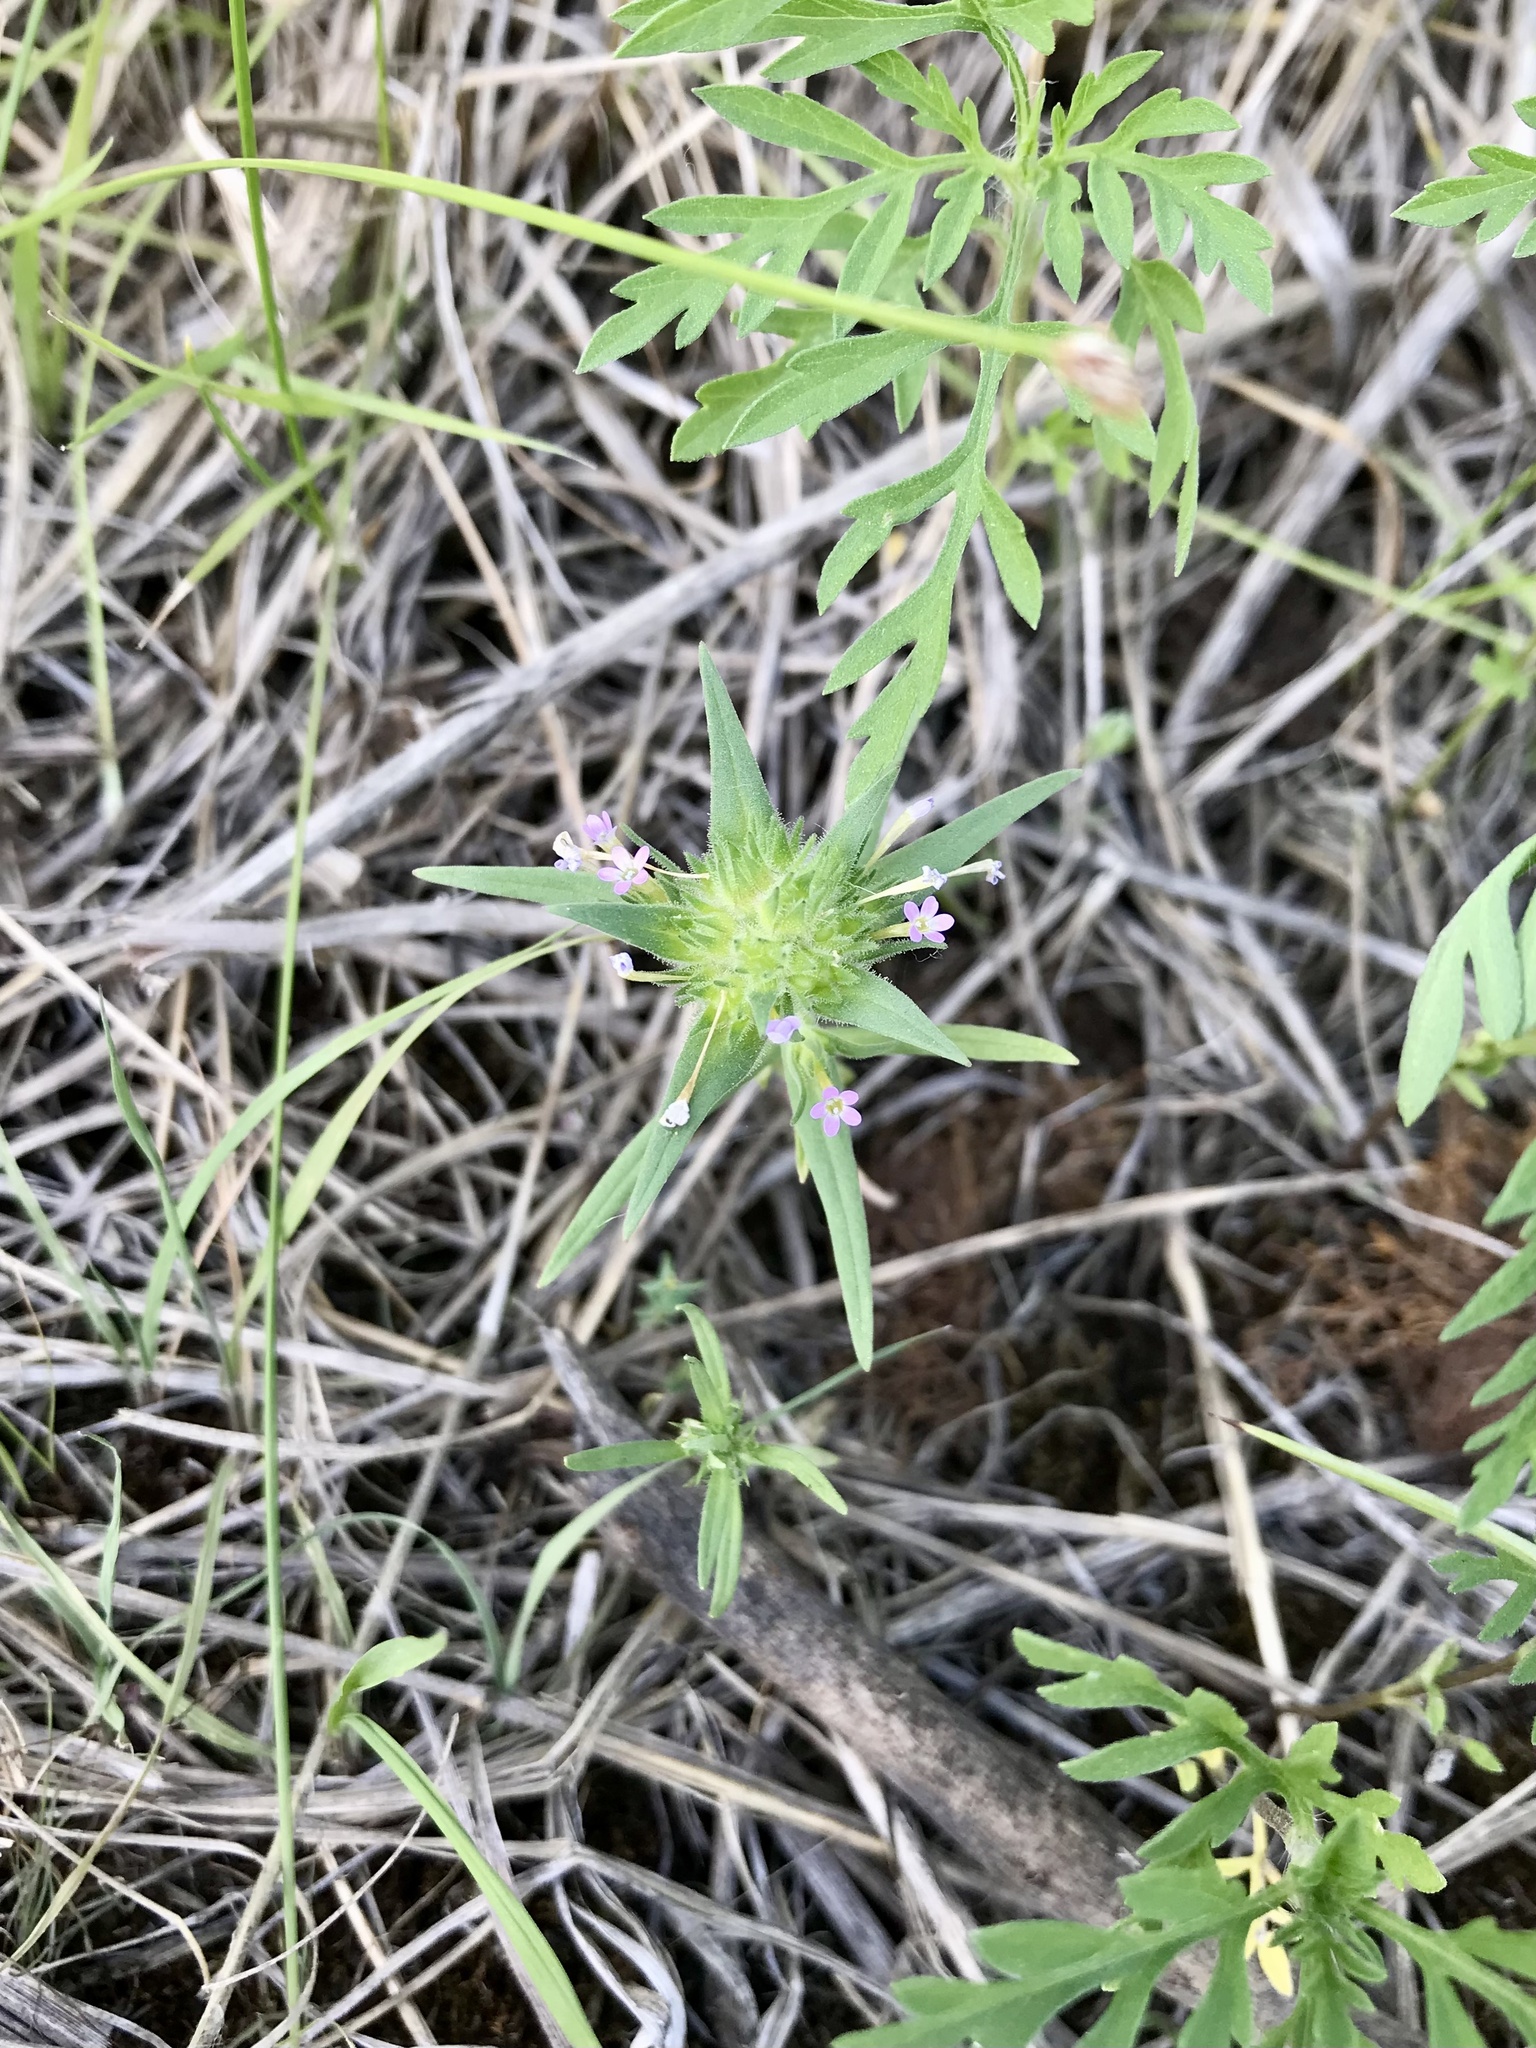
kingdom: Plantae
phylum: Tracheophyta
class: Magnoliopsida
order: Ericales
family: Polemoniaceae
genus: Collomia
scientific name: Collomia linearis
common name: Tiny trumpet
